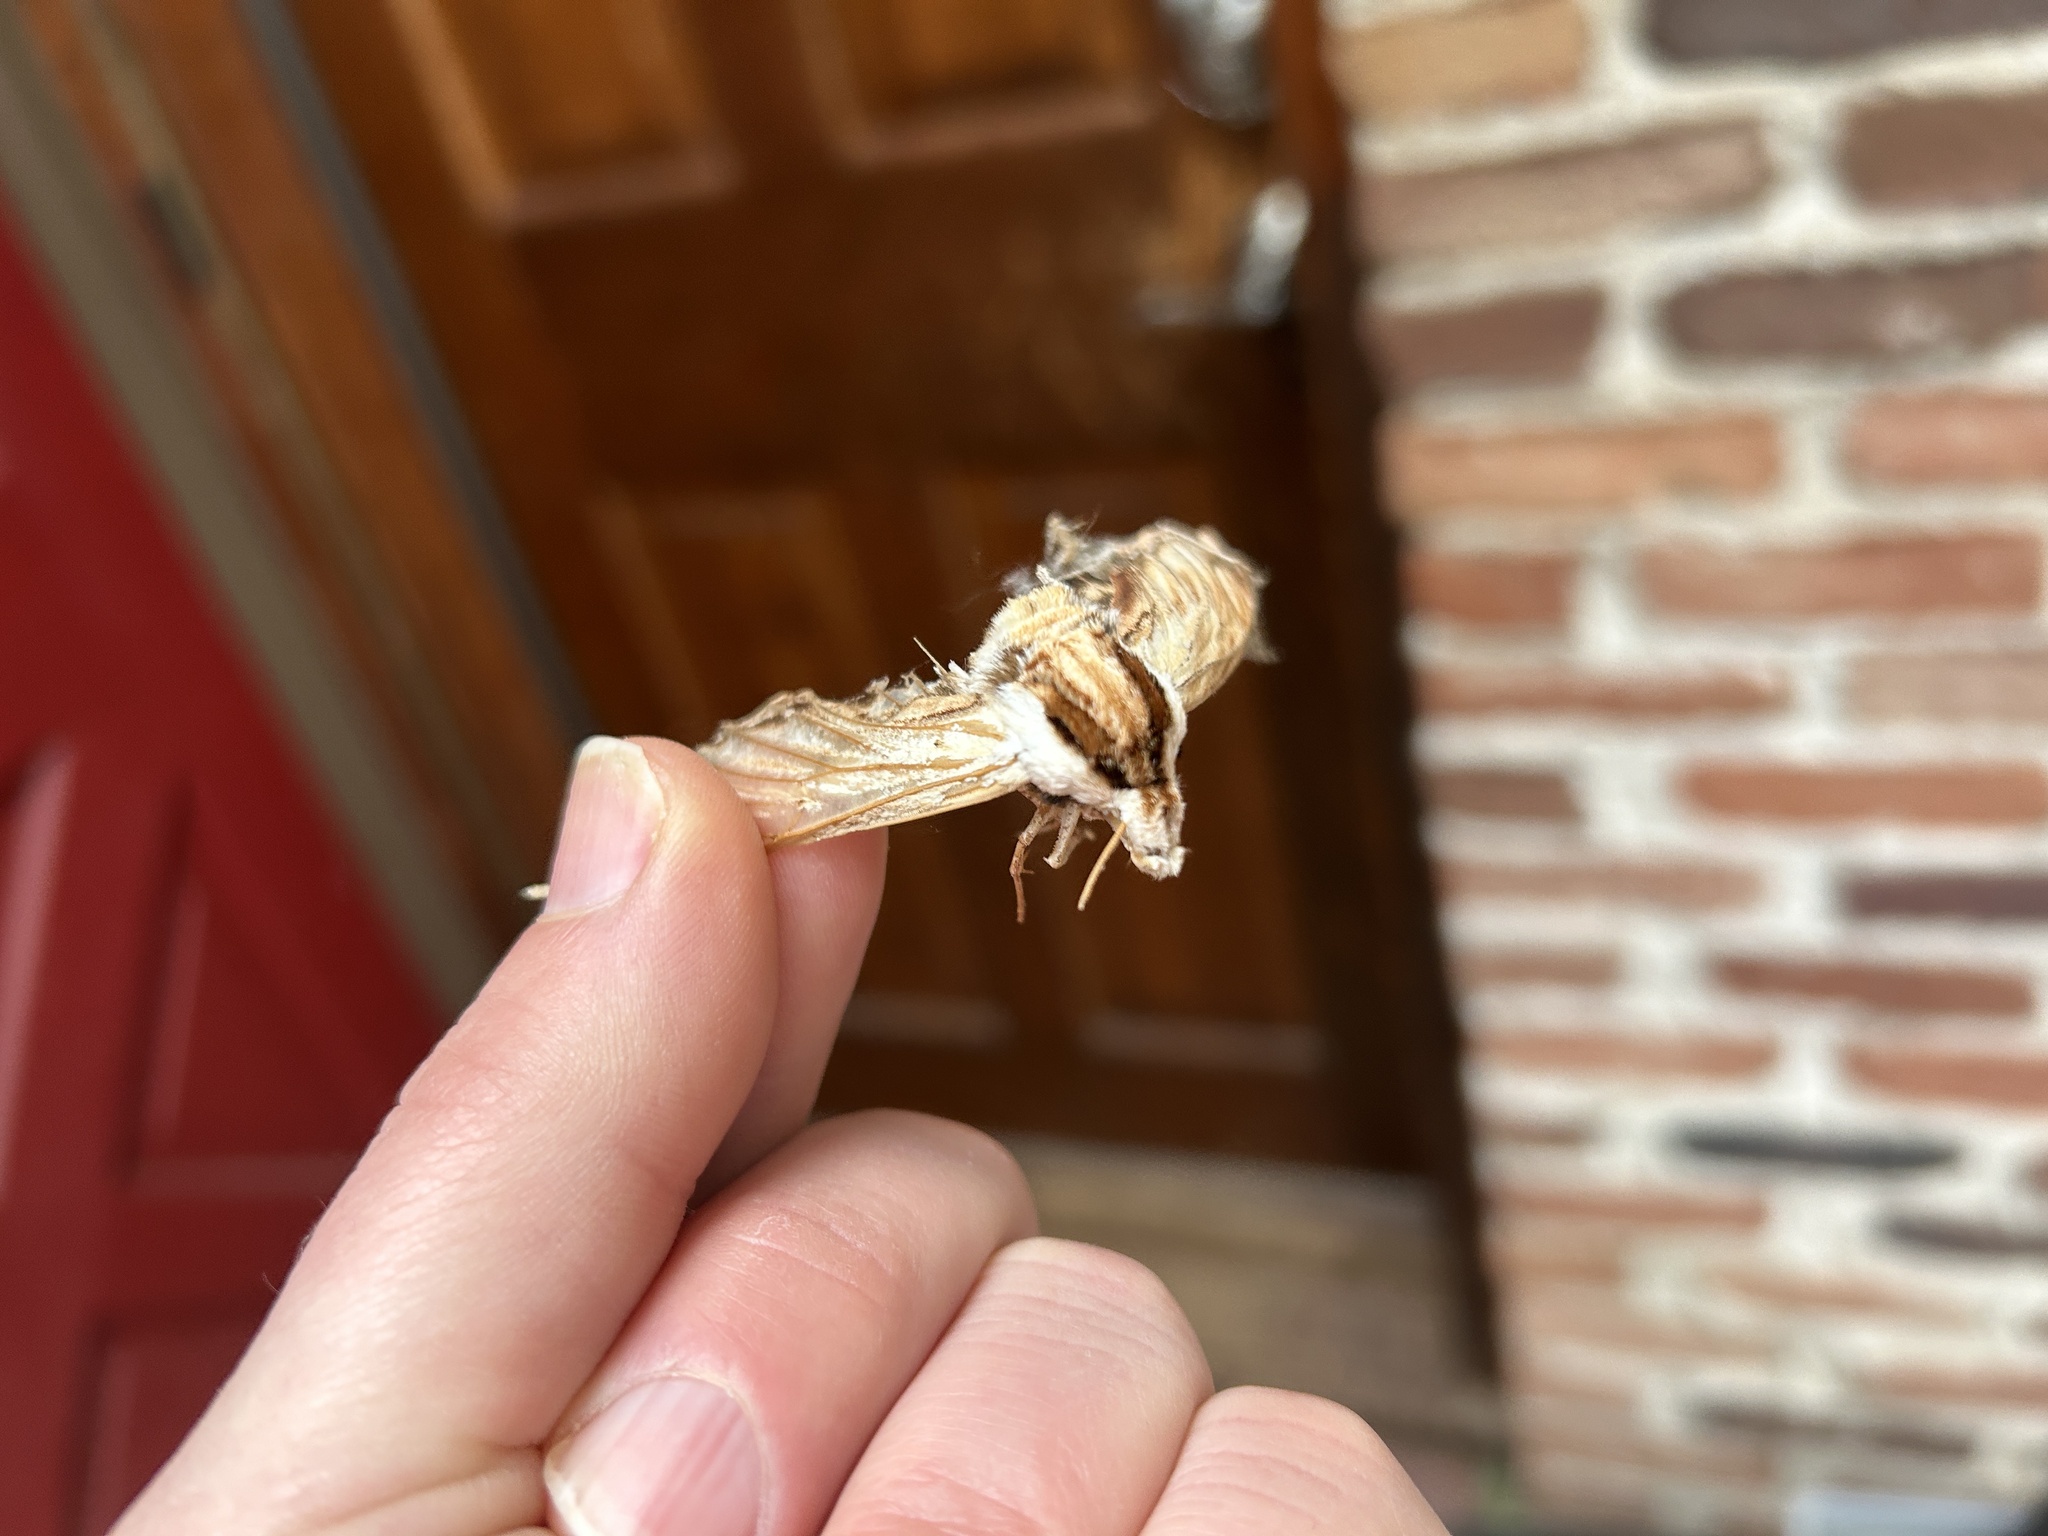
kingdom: Animalia
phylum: Arthropoda
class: Insecta
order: Lepidoptera
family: Sphingidae
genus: Sphinx
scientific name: Sphinx kalmiae
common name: Laurel sphinx
